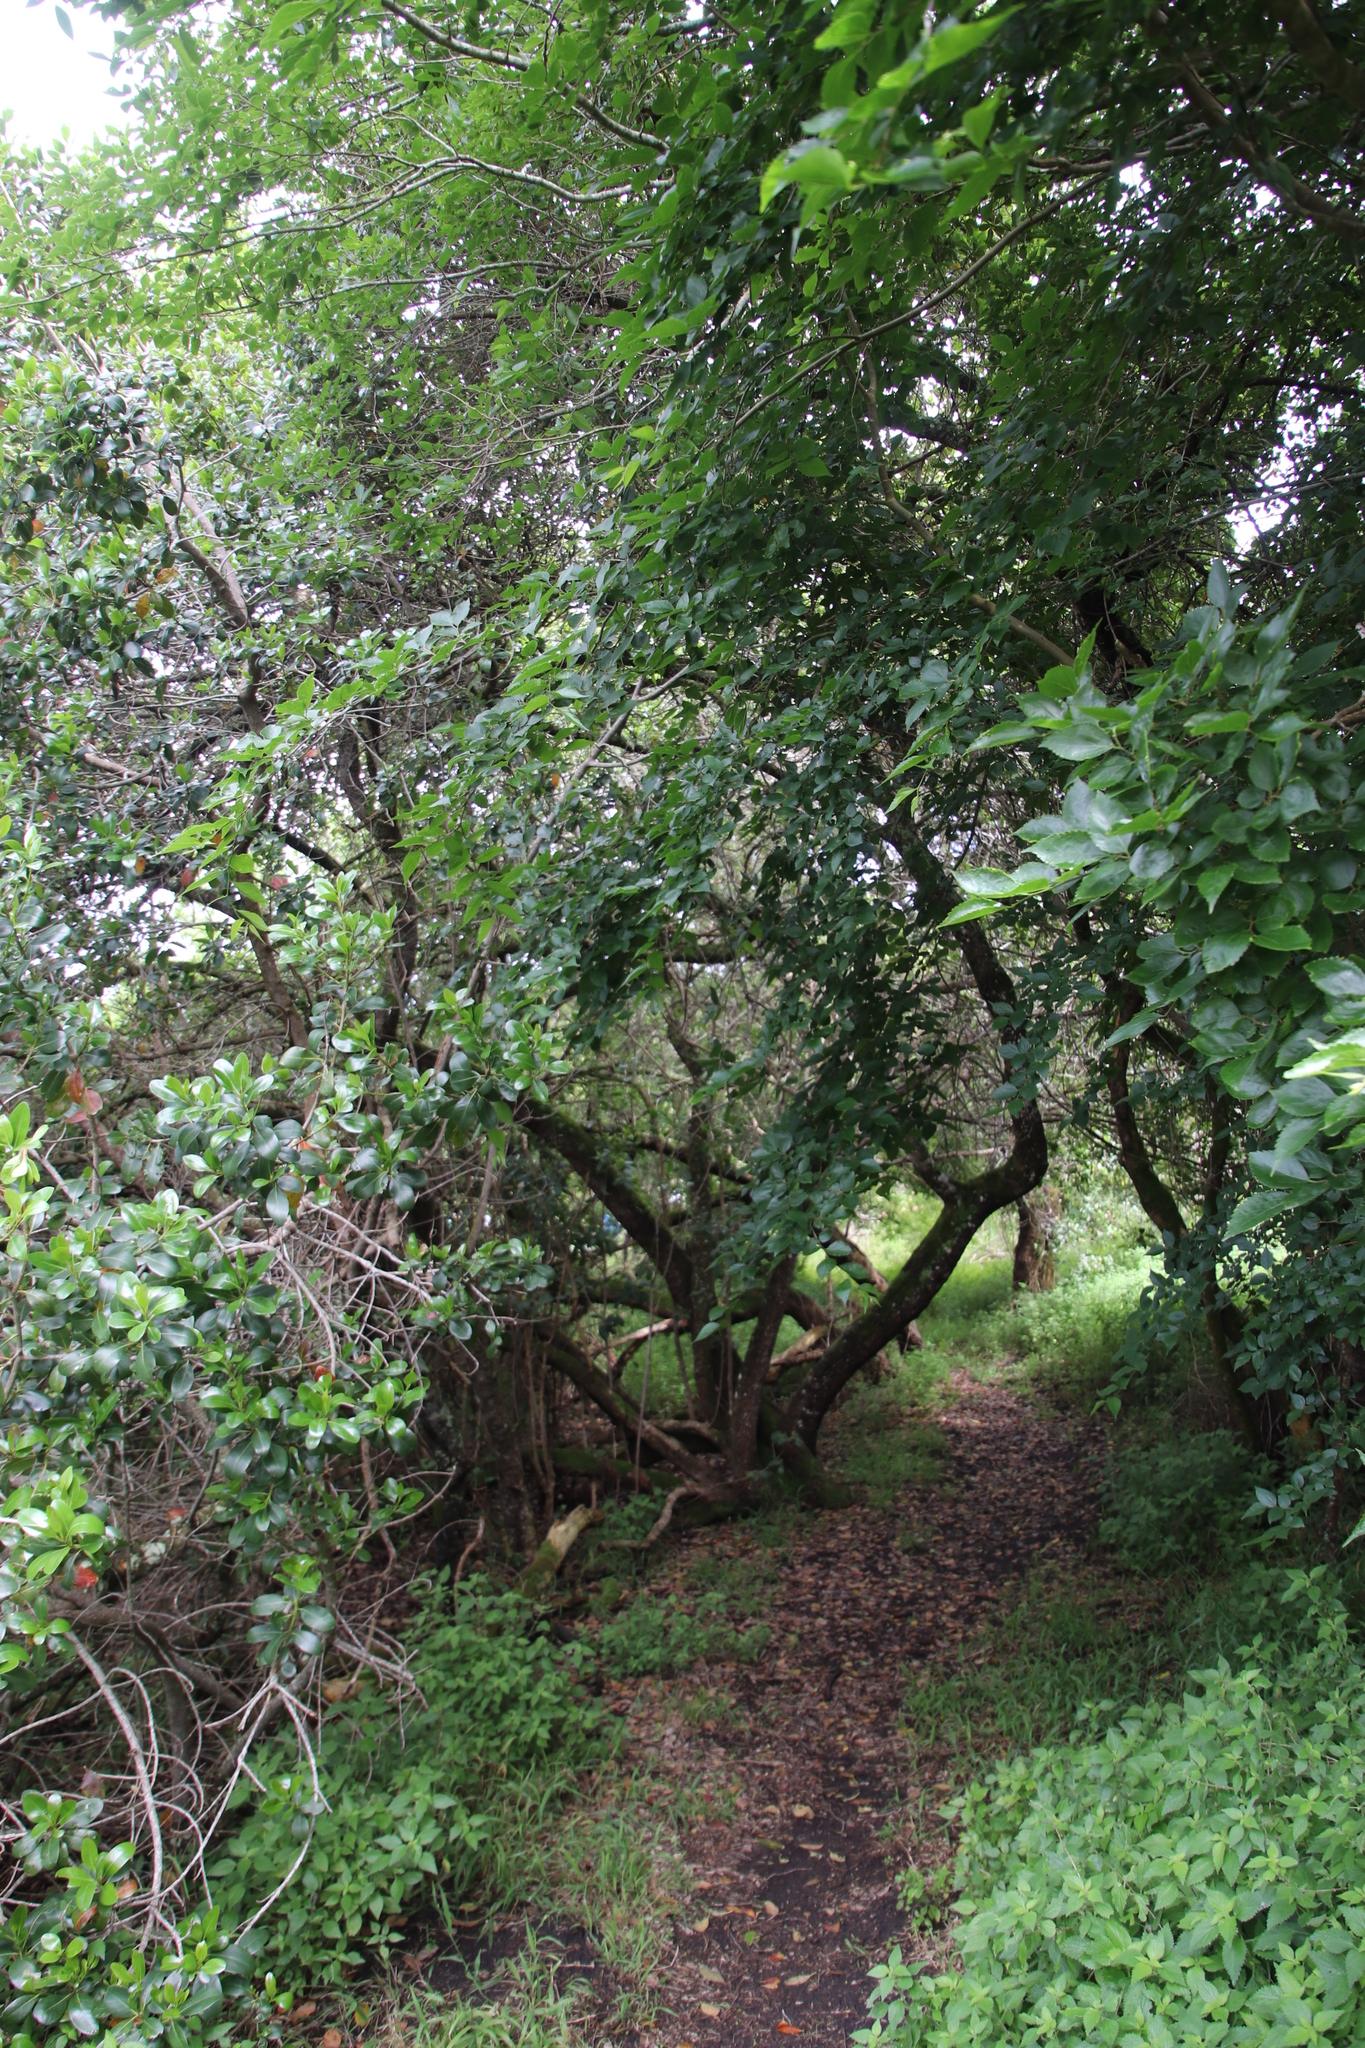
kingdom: Plantae
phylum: Tracheophyta
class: Magnoliopsida
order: Rosales
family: Cannabaceae
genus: Celtis
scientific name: Celtis africana
